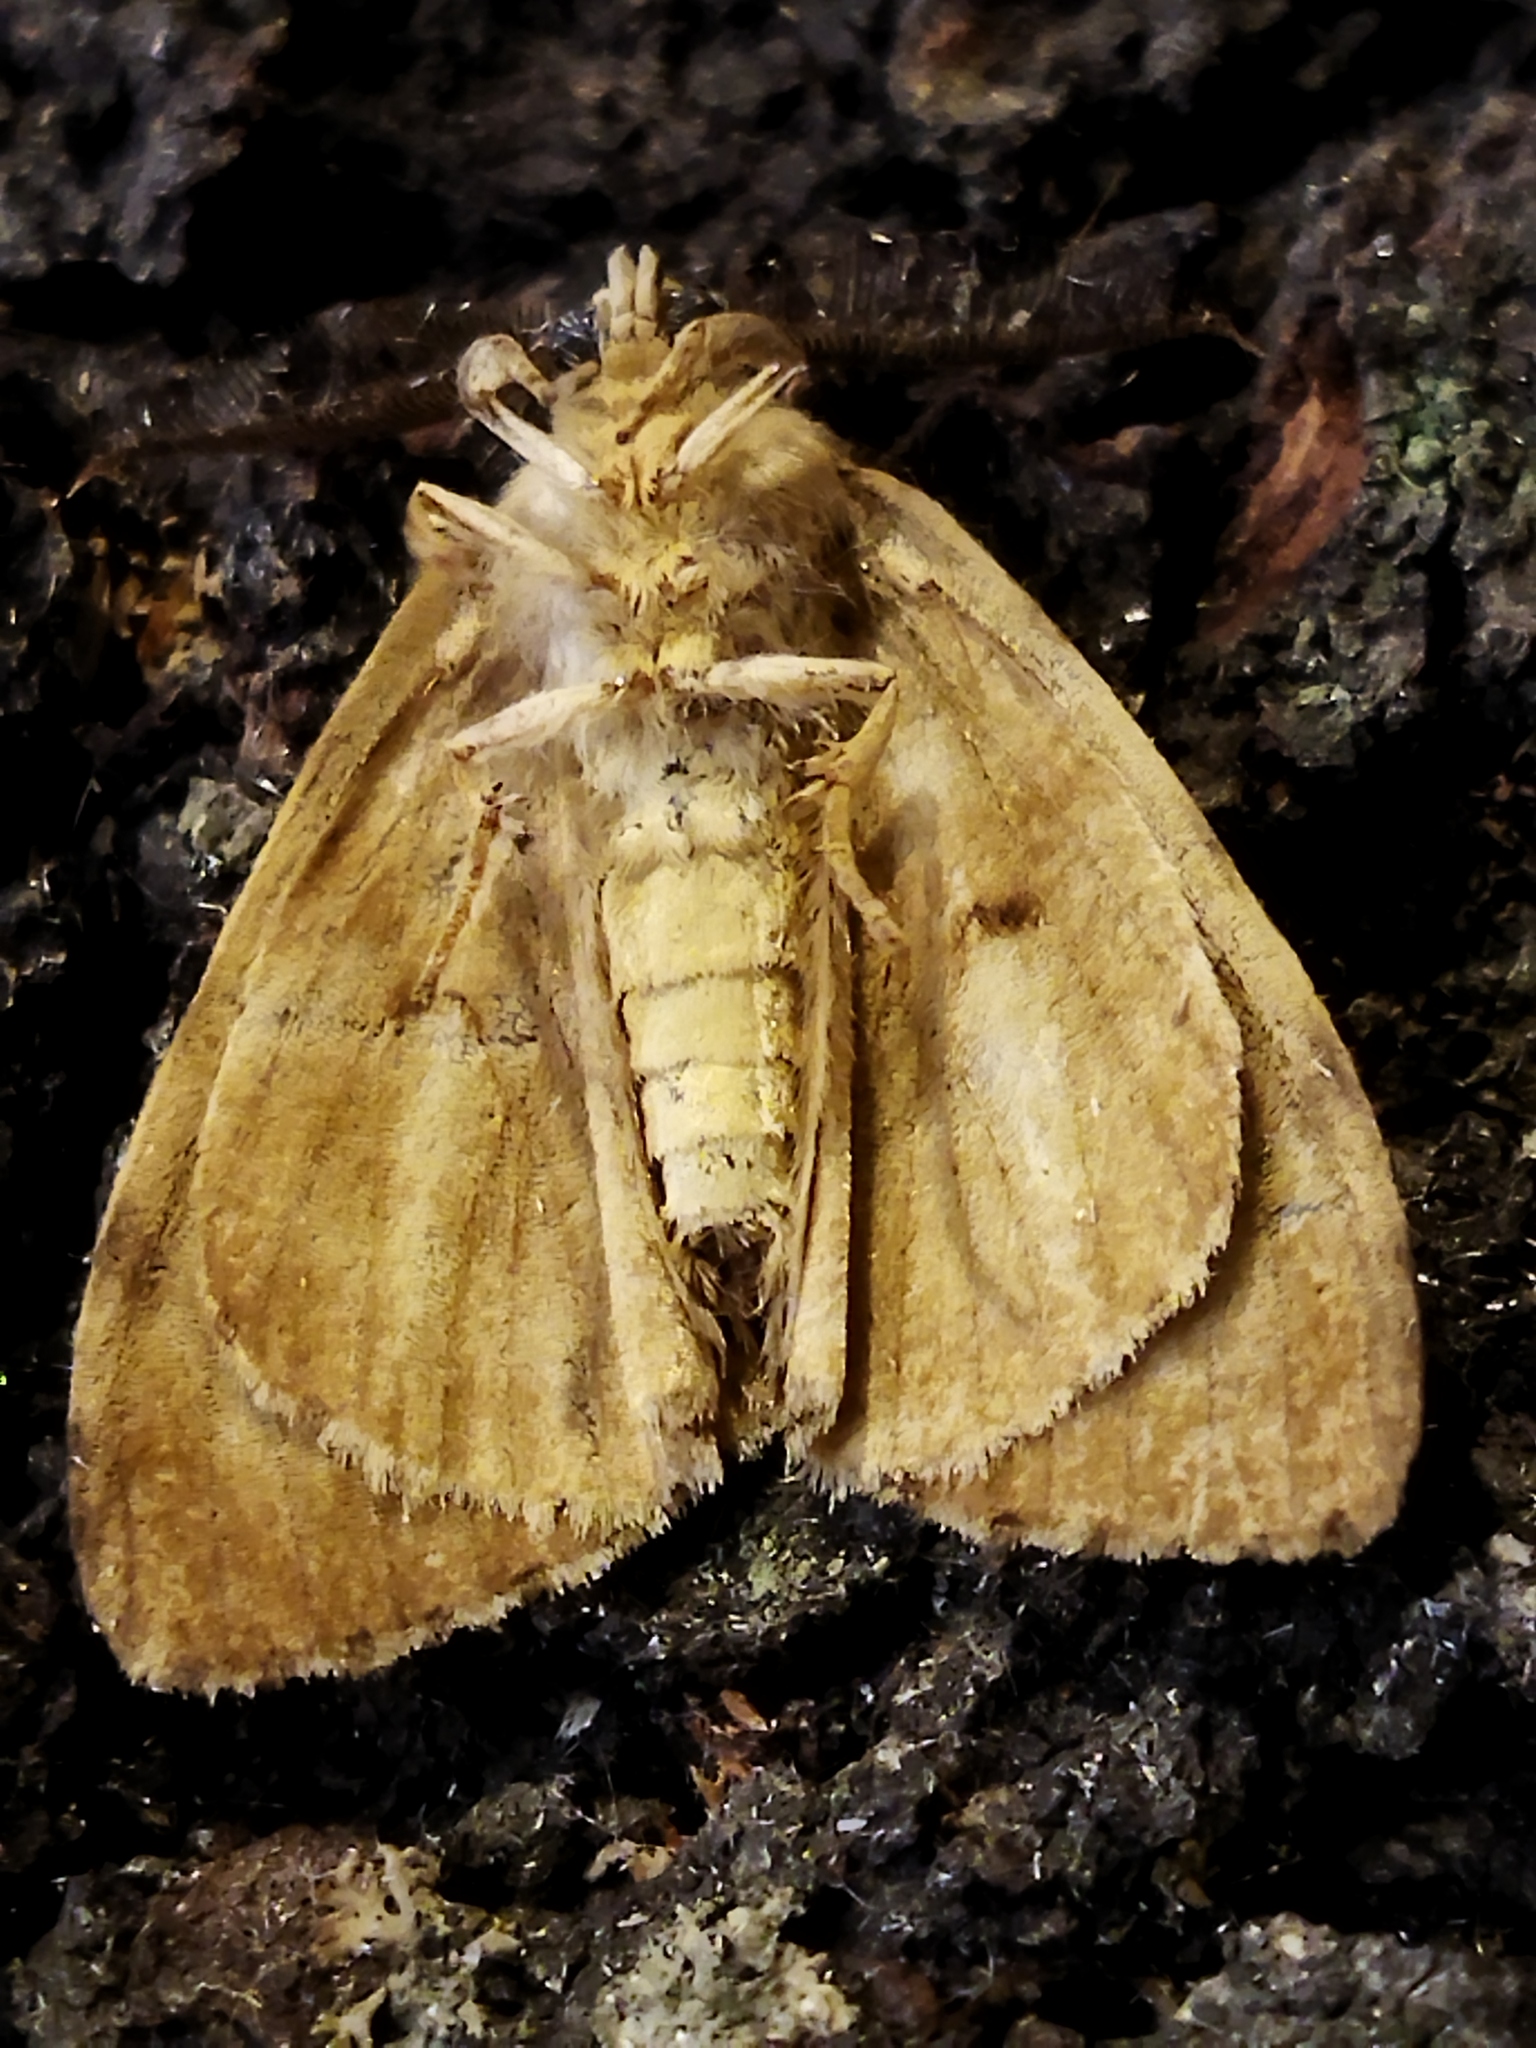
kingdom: Animalia
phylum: Arthropoda
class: Insecta
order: Lepidoptera
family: Erebidae
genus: Lymantria
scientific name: Lymantria dispar
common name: Gypsy moth
